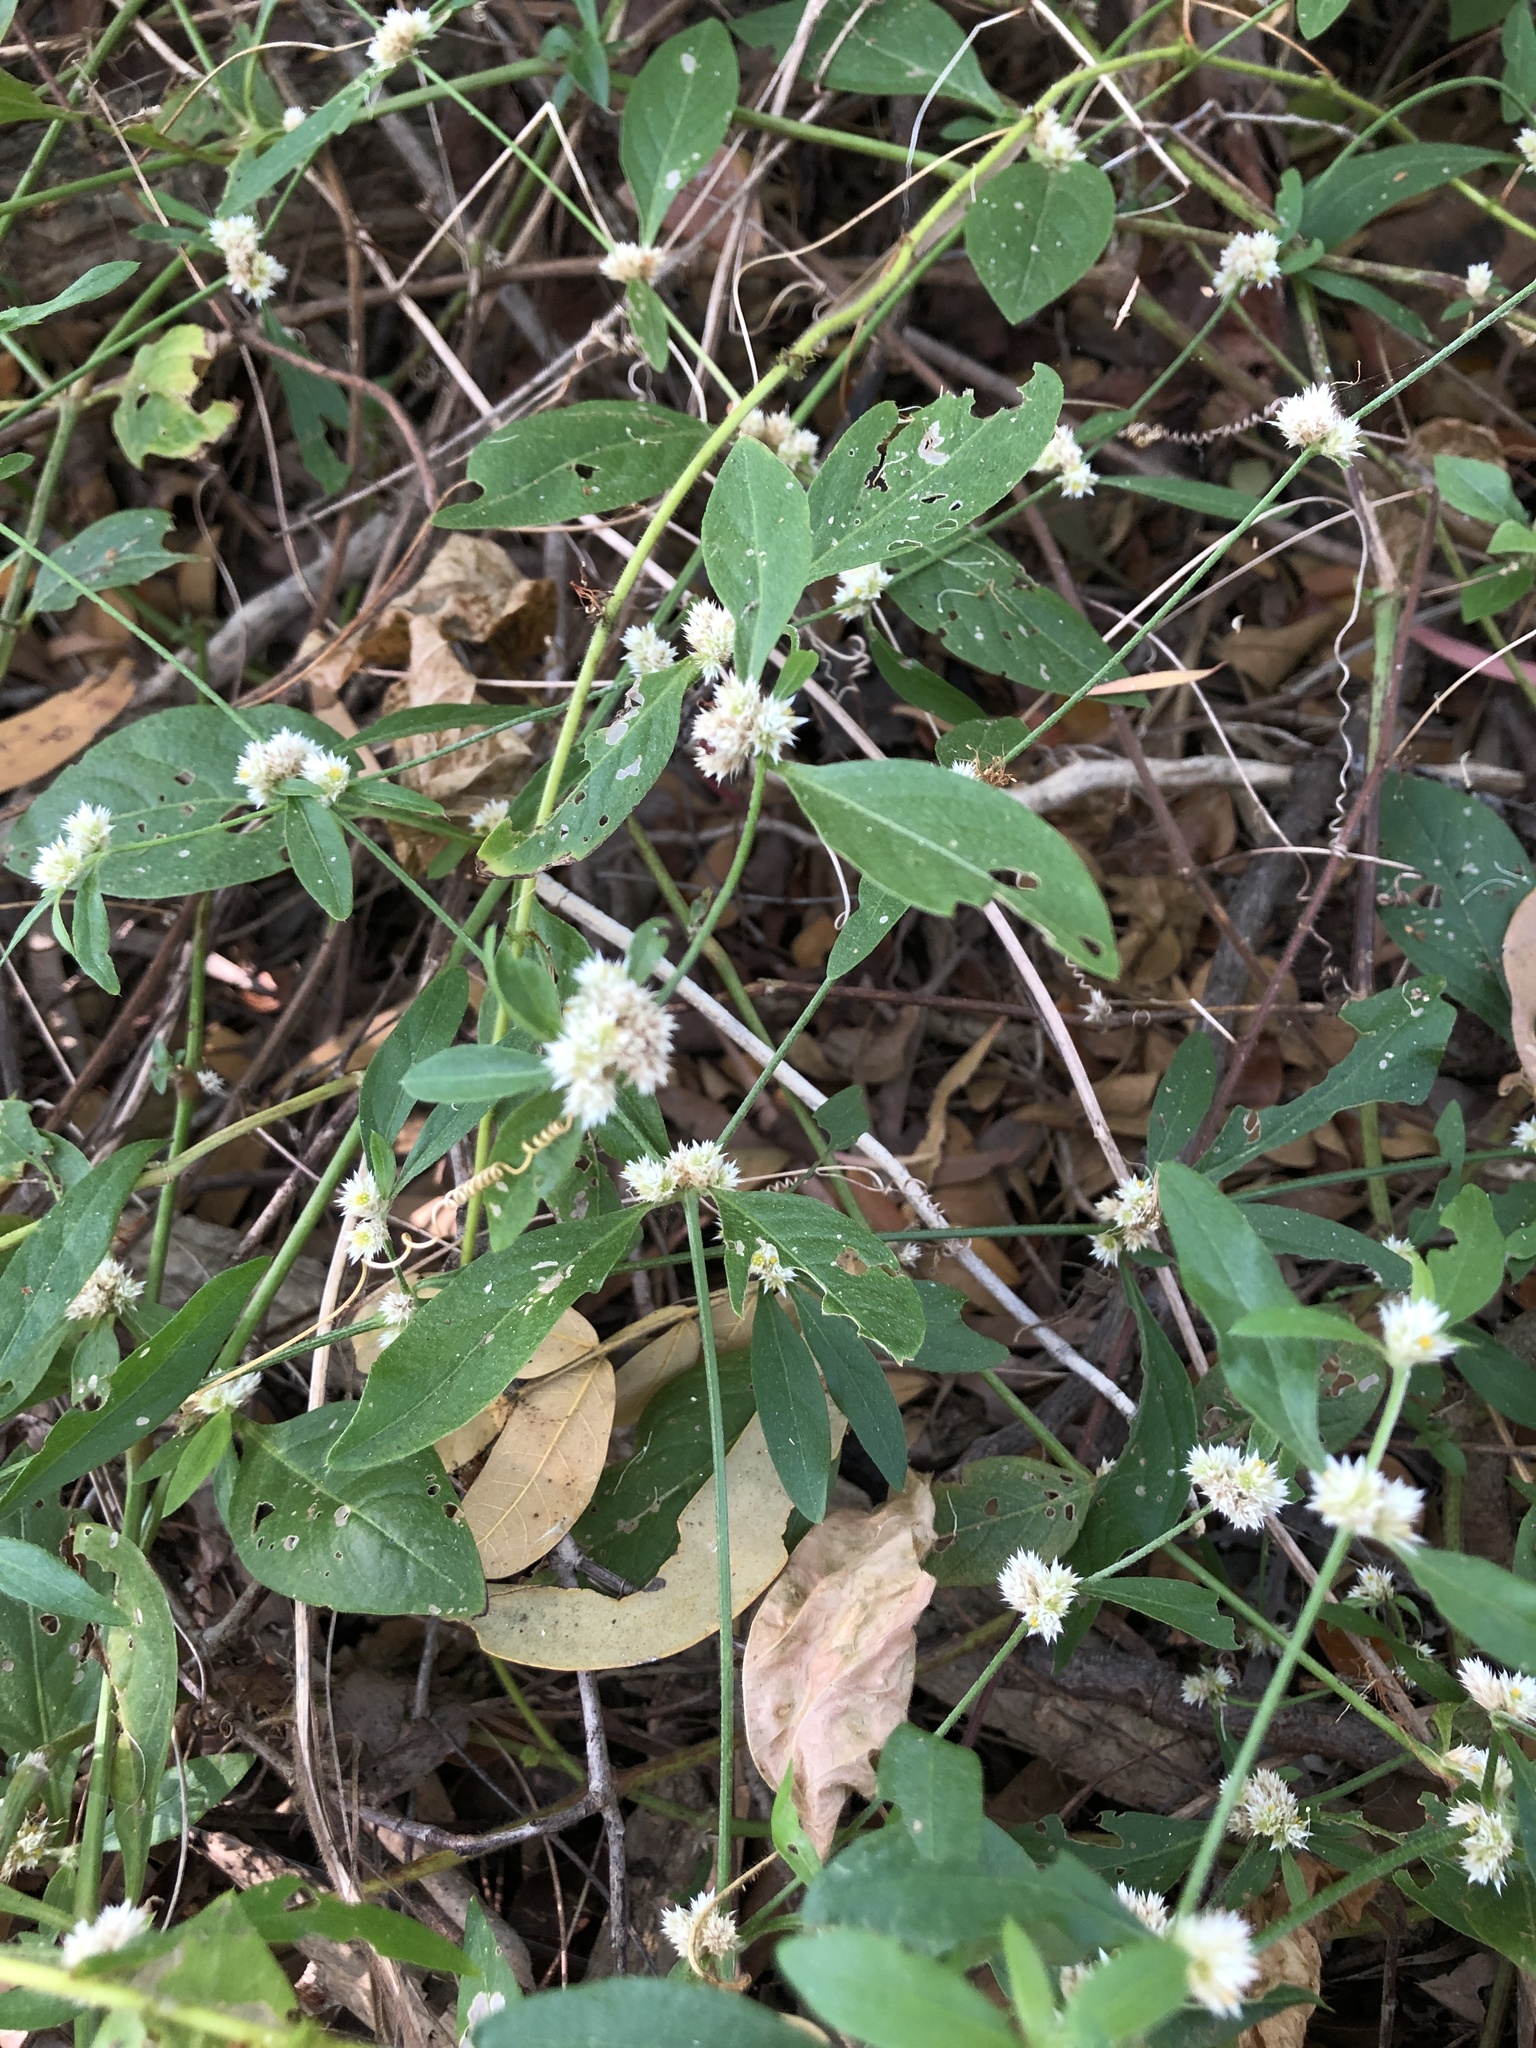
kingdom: Plantae
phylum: Tracheophyta
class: Magnoliopsida
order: Caryophyllales
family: Amaranthaceae
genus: Alternanthera
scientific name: Alternanthera ficoidea
